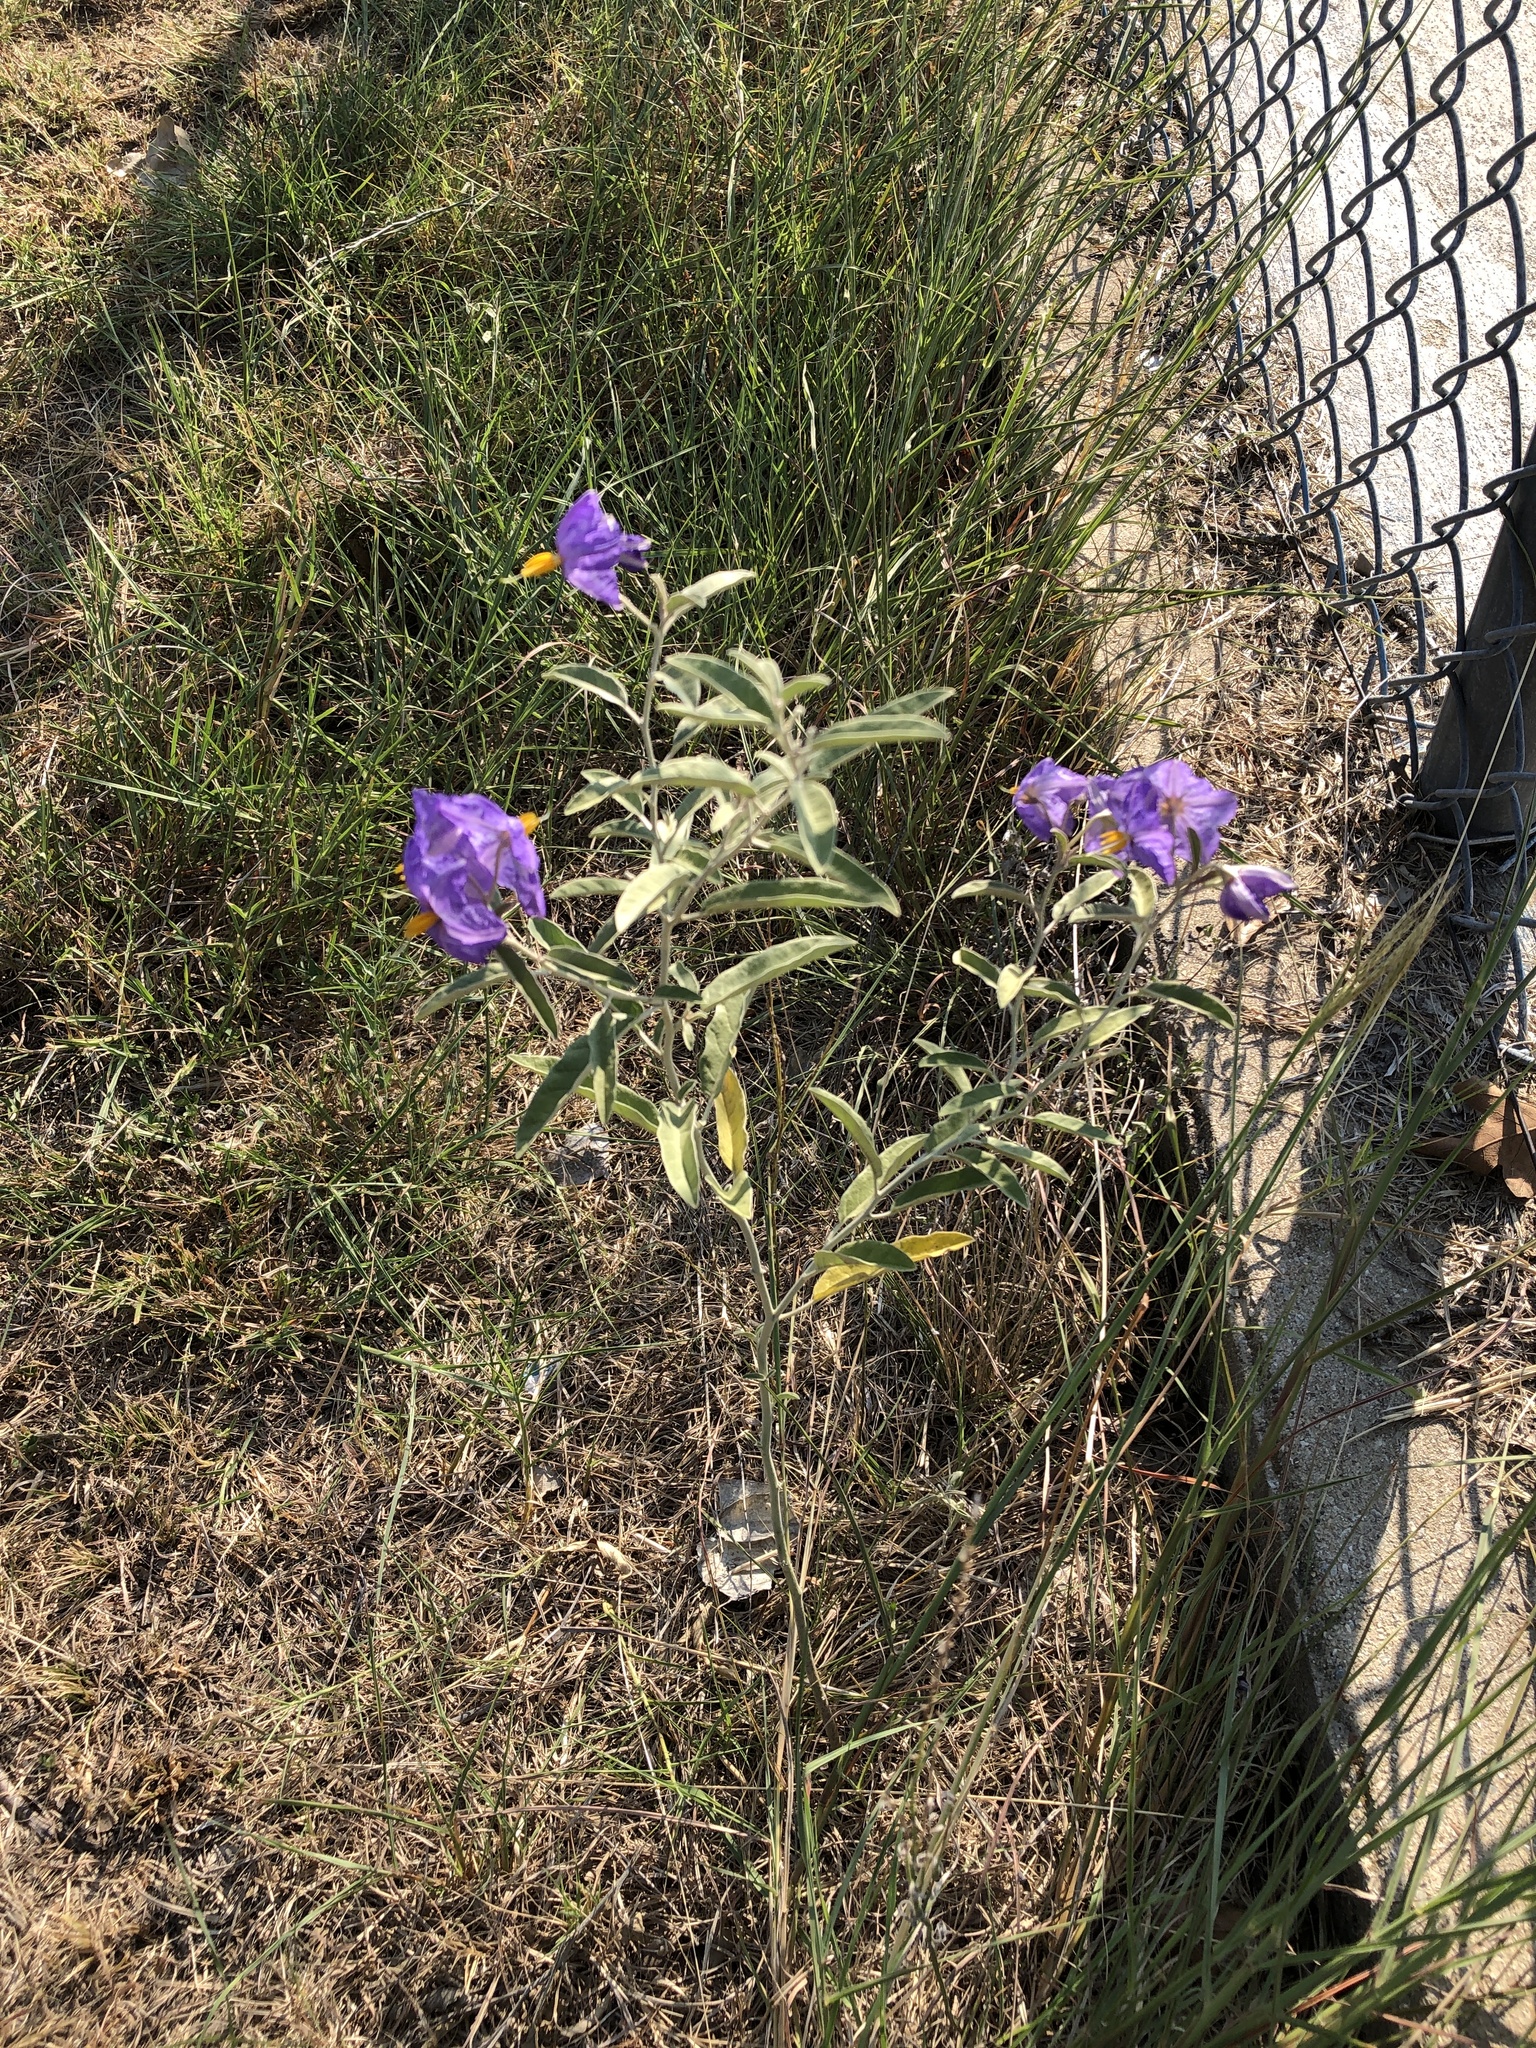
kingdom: Plantae
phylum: Tracheophyta
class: Magnoliopsida
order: Solanales
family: Solanaceae
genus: Solanum
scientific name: Solanum elaeagnifolium
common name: Silverleaf nightshade
